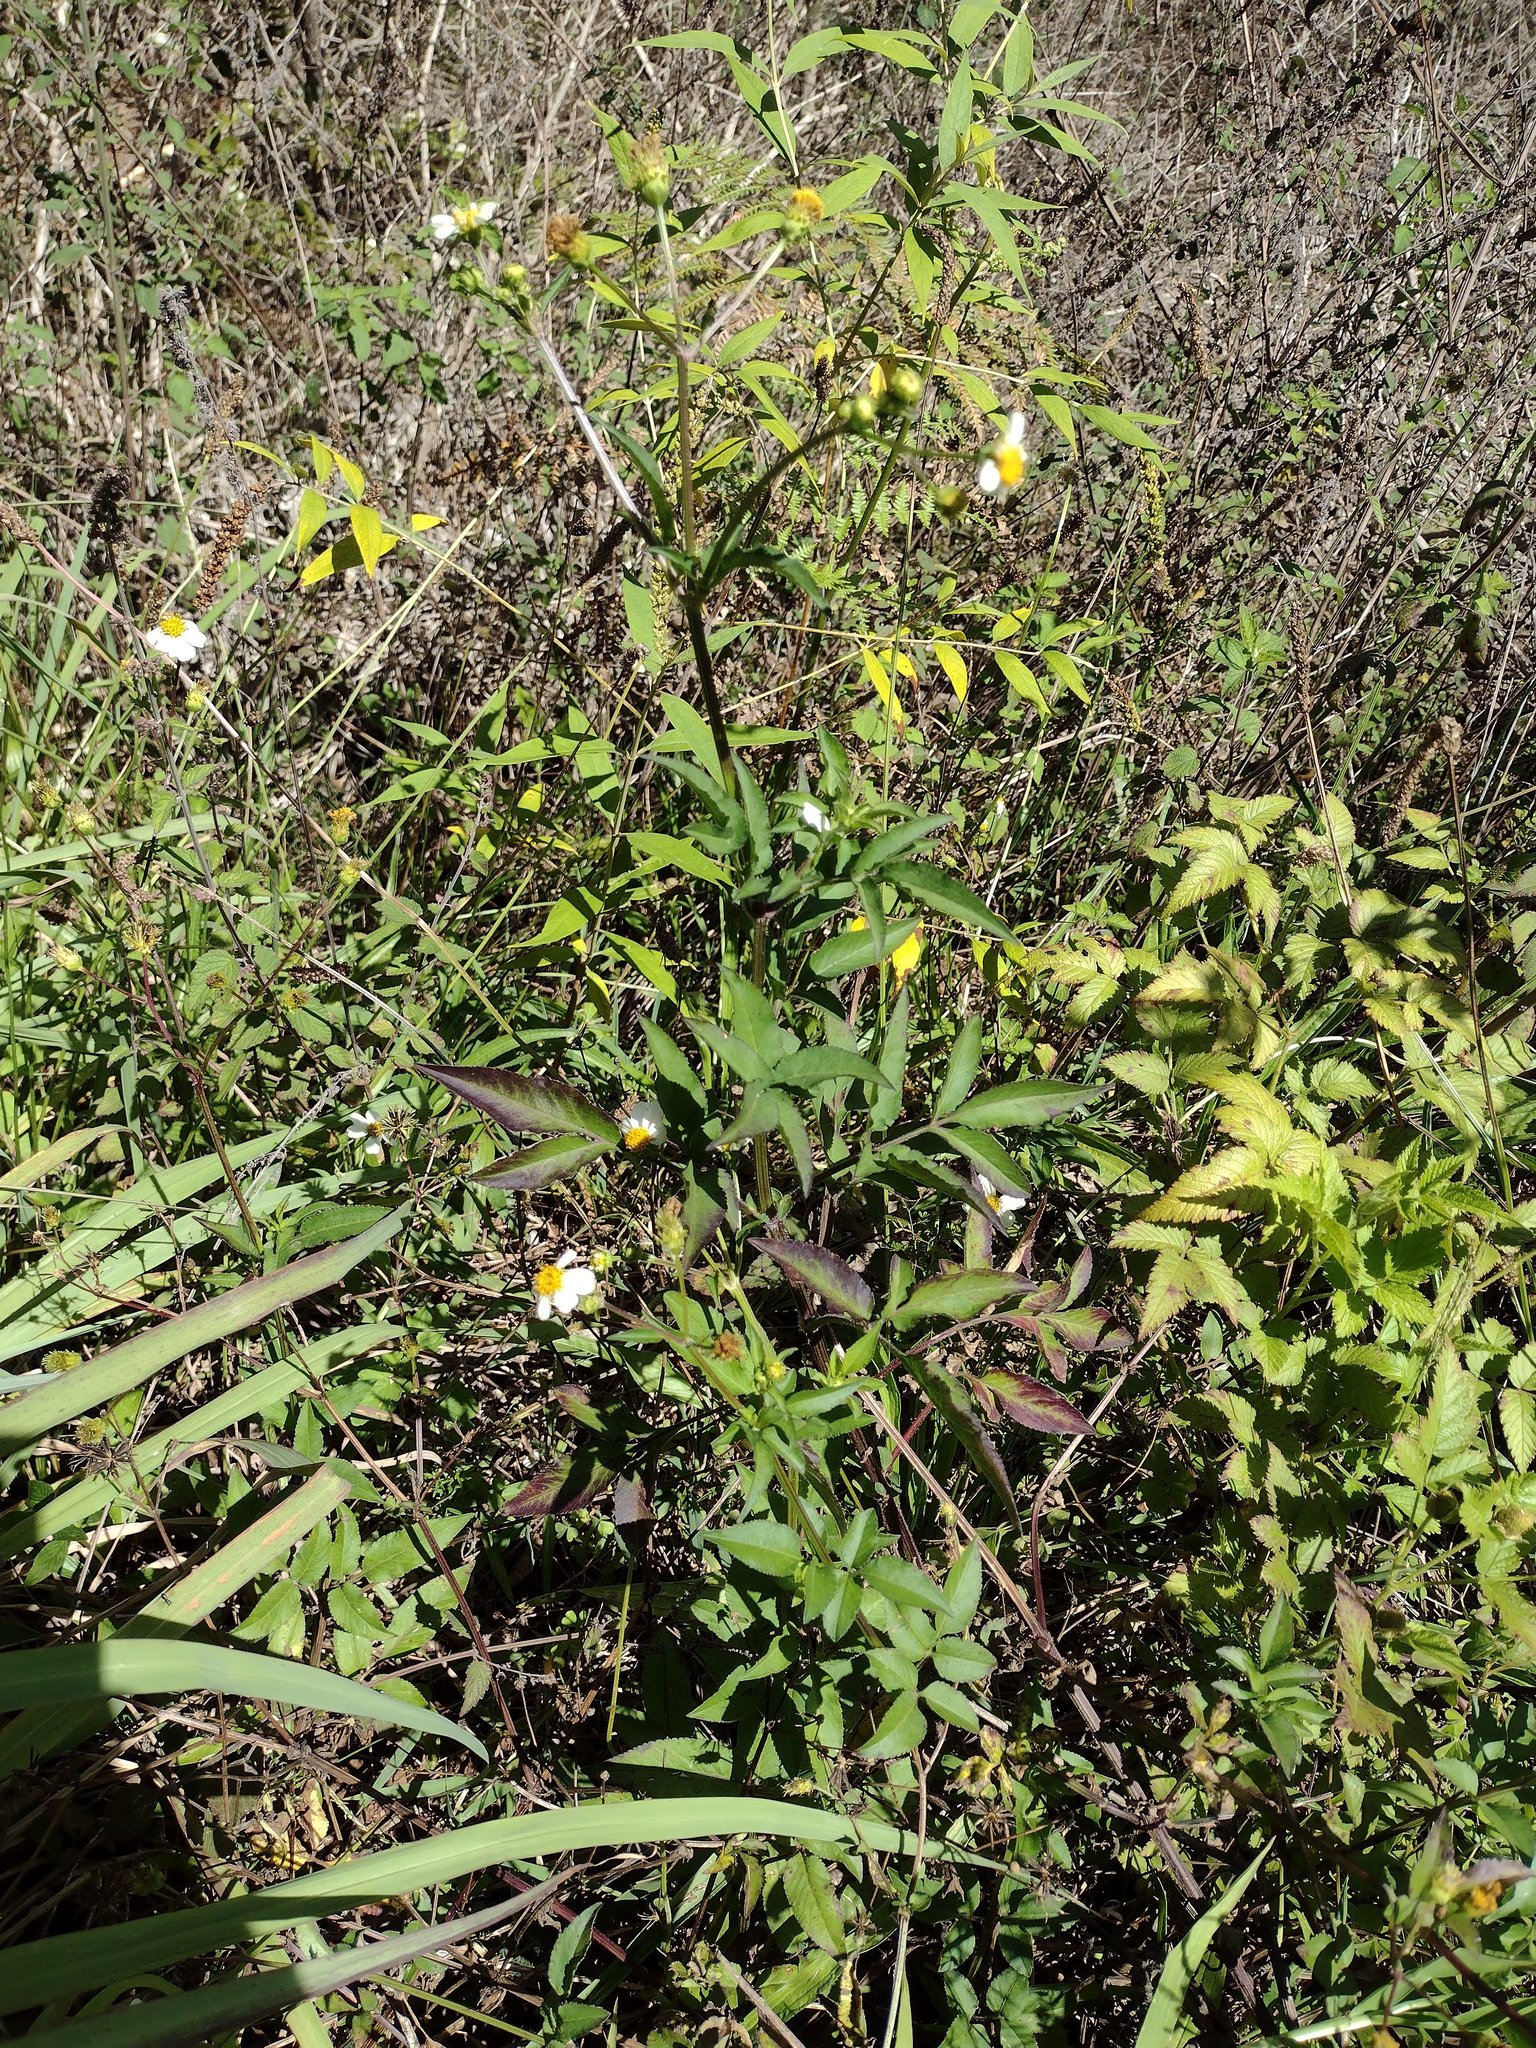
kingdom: Plantae
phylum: Tracheophyta
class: Magnoliopsida
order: Asterales
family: Asteraceae
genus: Bidens
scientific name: Bidens alba
